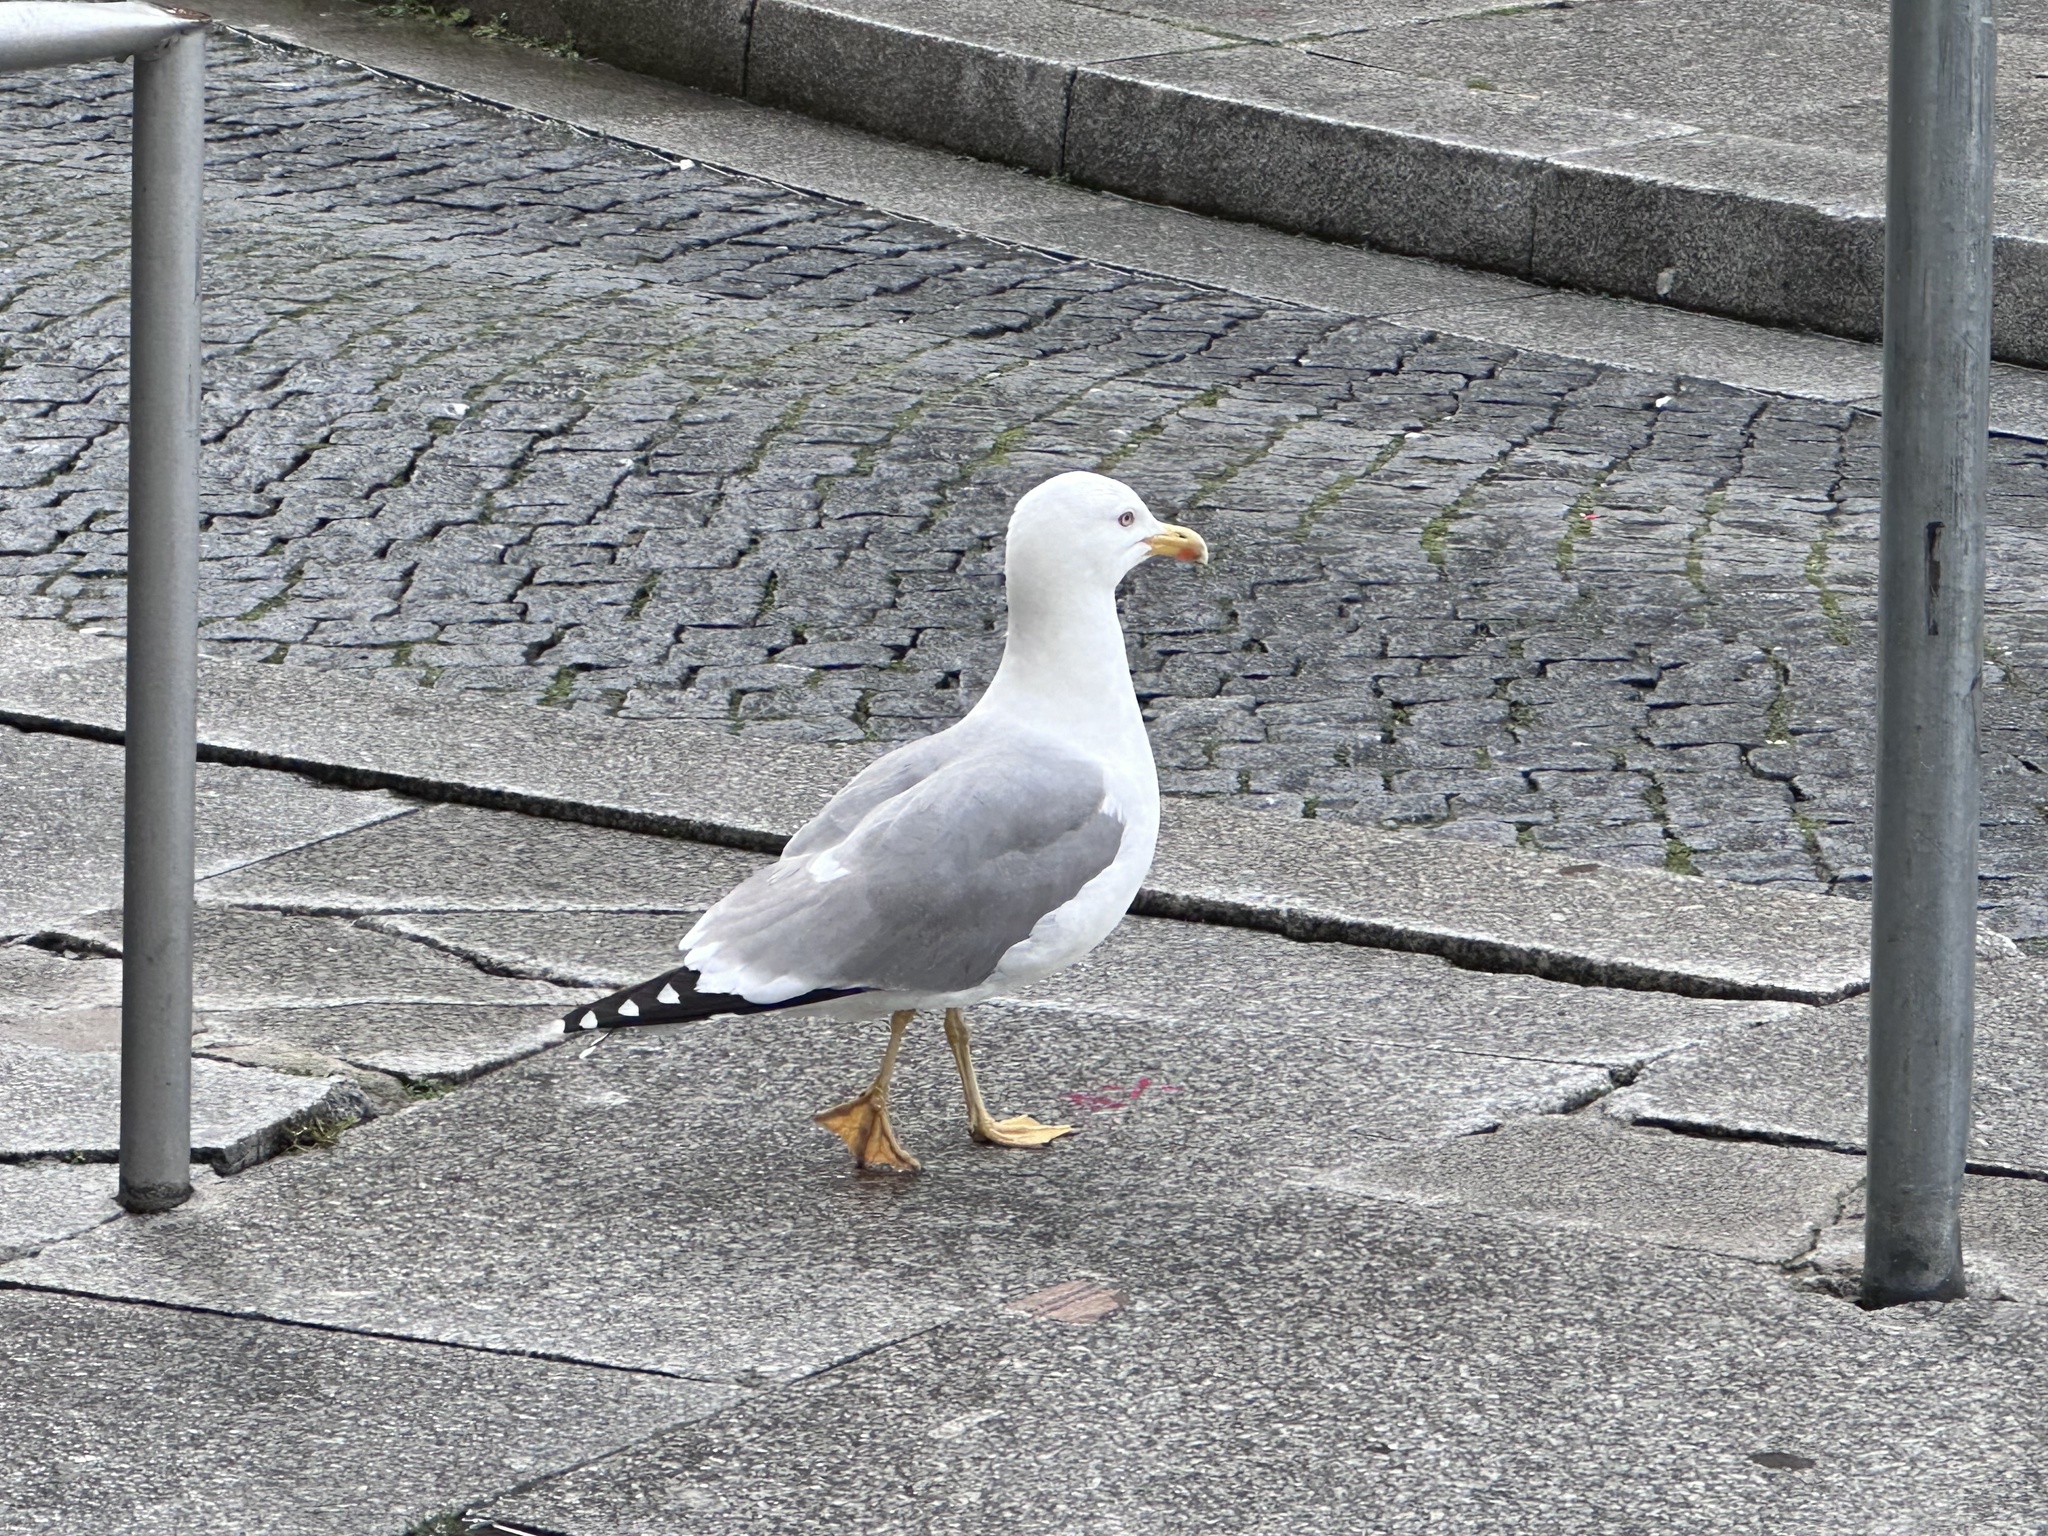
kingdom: Animalia
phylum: Chordata
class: Aves
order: Charadriiformes
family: Laridae
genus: Larus
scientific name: Larus michahellis
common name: Yellow-legged gull
